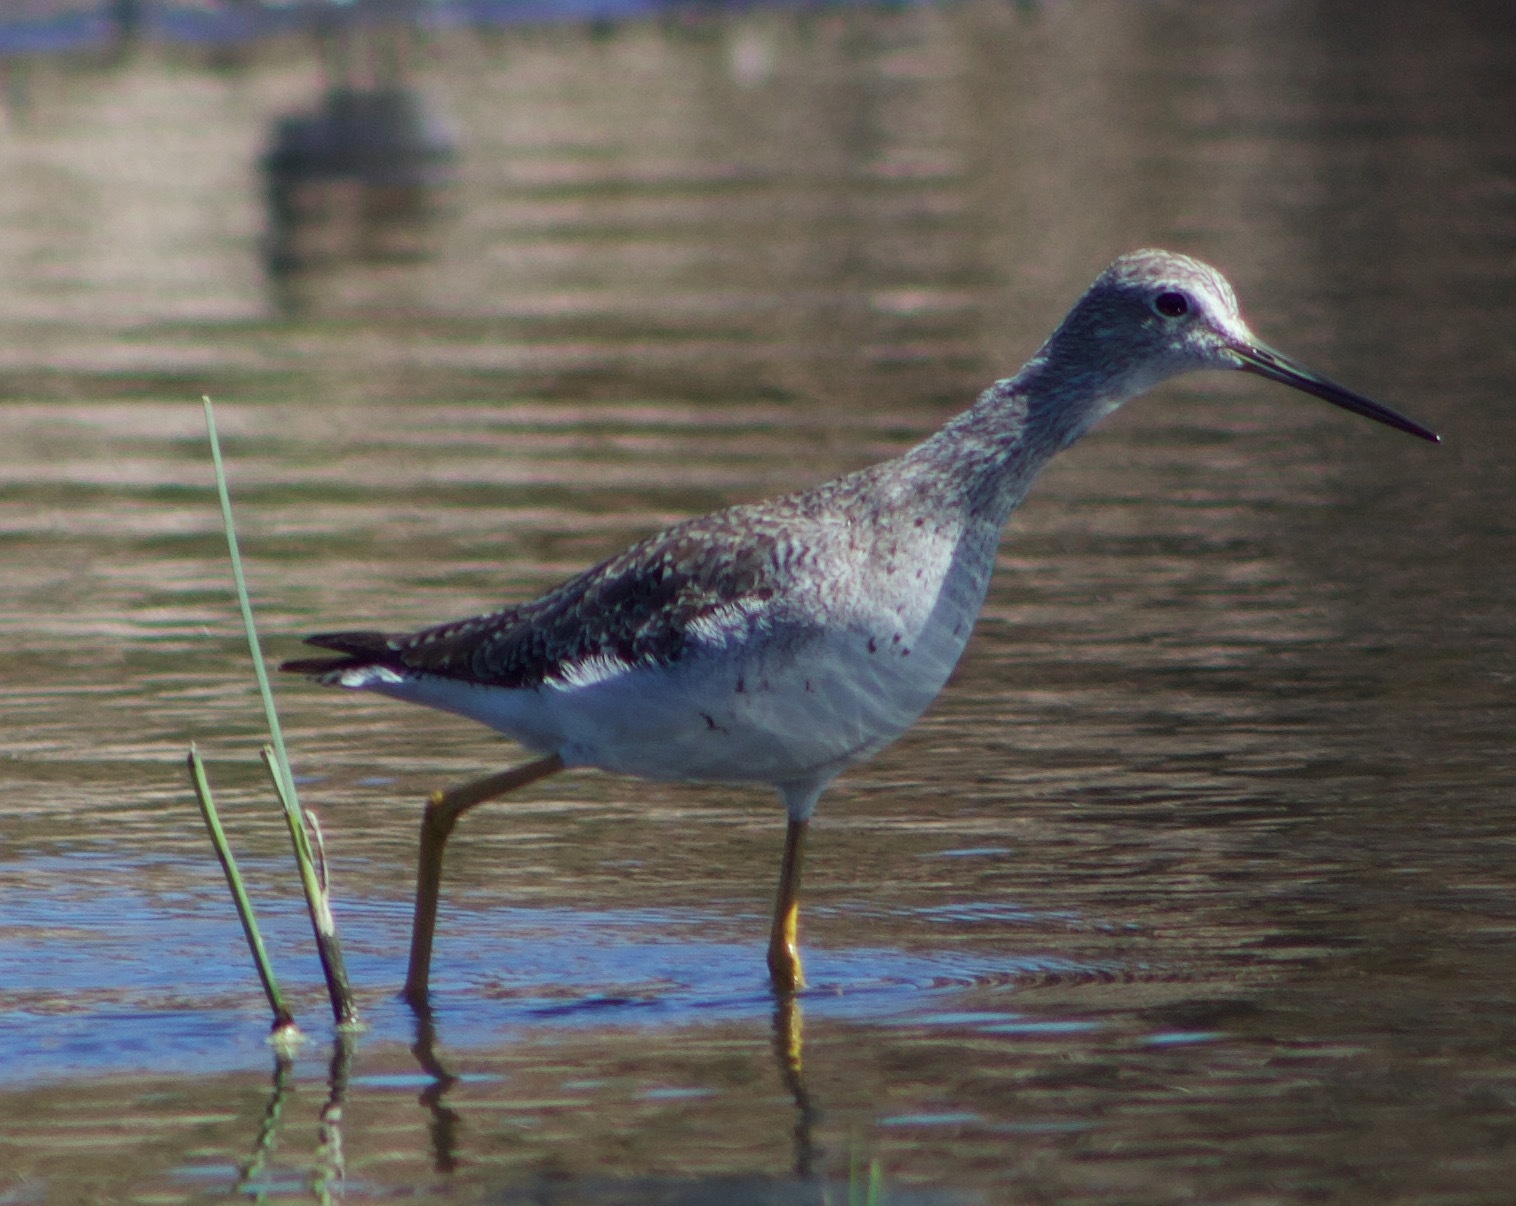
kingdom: Animalia
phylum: Chordata
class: Aves
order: Charadriiformes
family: Scolopacidae
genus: Tringa
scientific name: Tringa melanoleuca
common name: Greater yellowlegs
